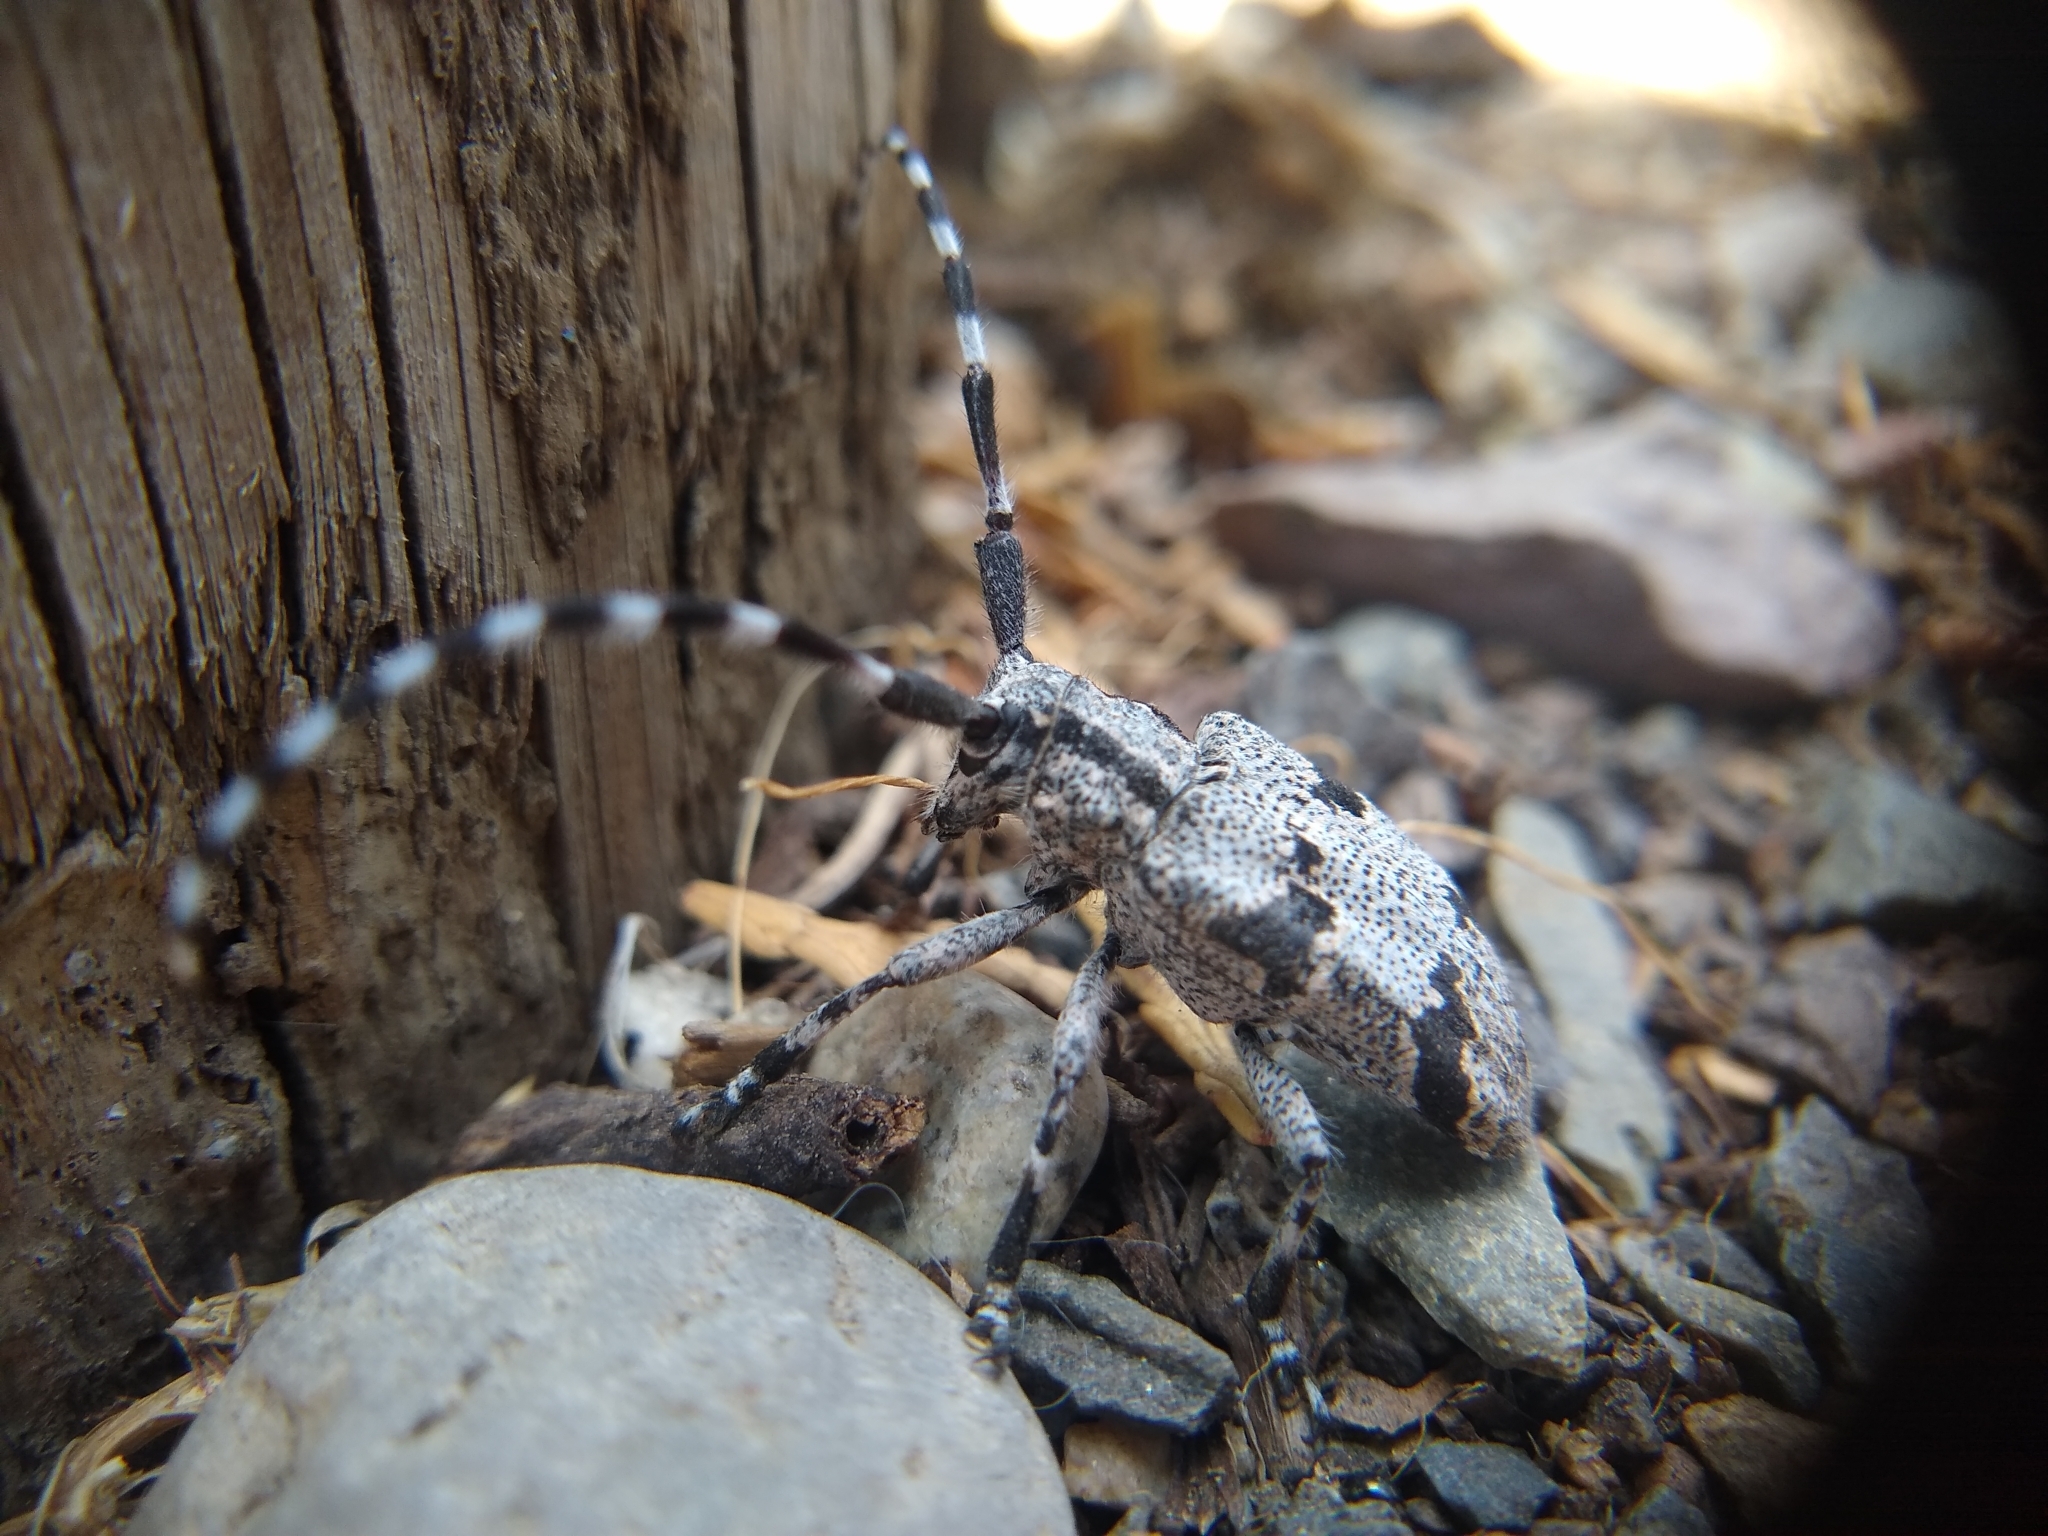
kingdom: Animalia
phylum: Arthropoda
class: Insecta
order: Coleoptera
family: Cerambycidae
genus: Synaphaeta
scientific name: Synaphaeta guexi
